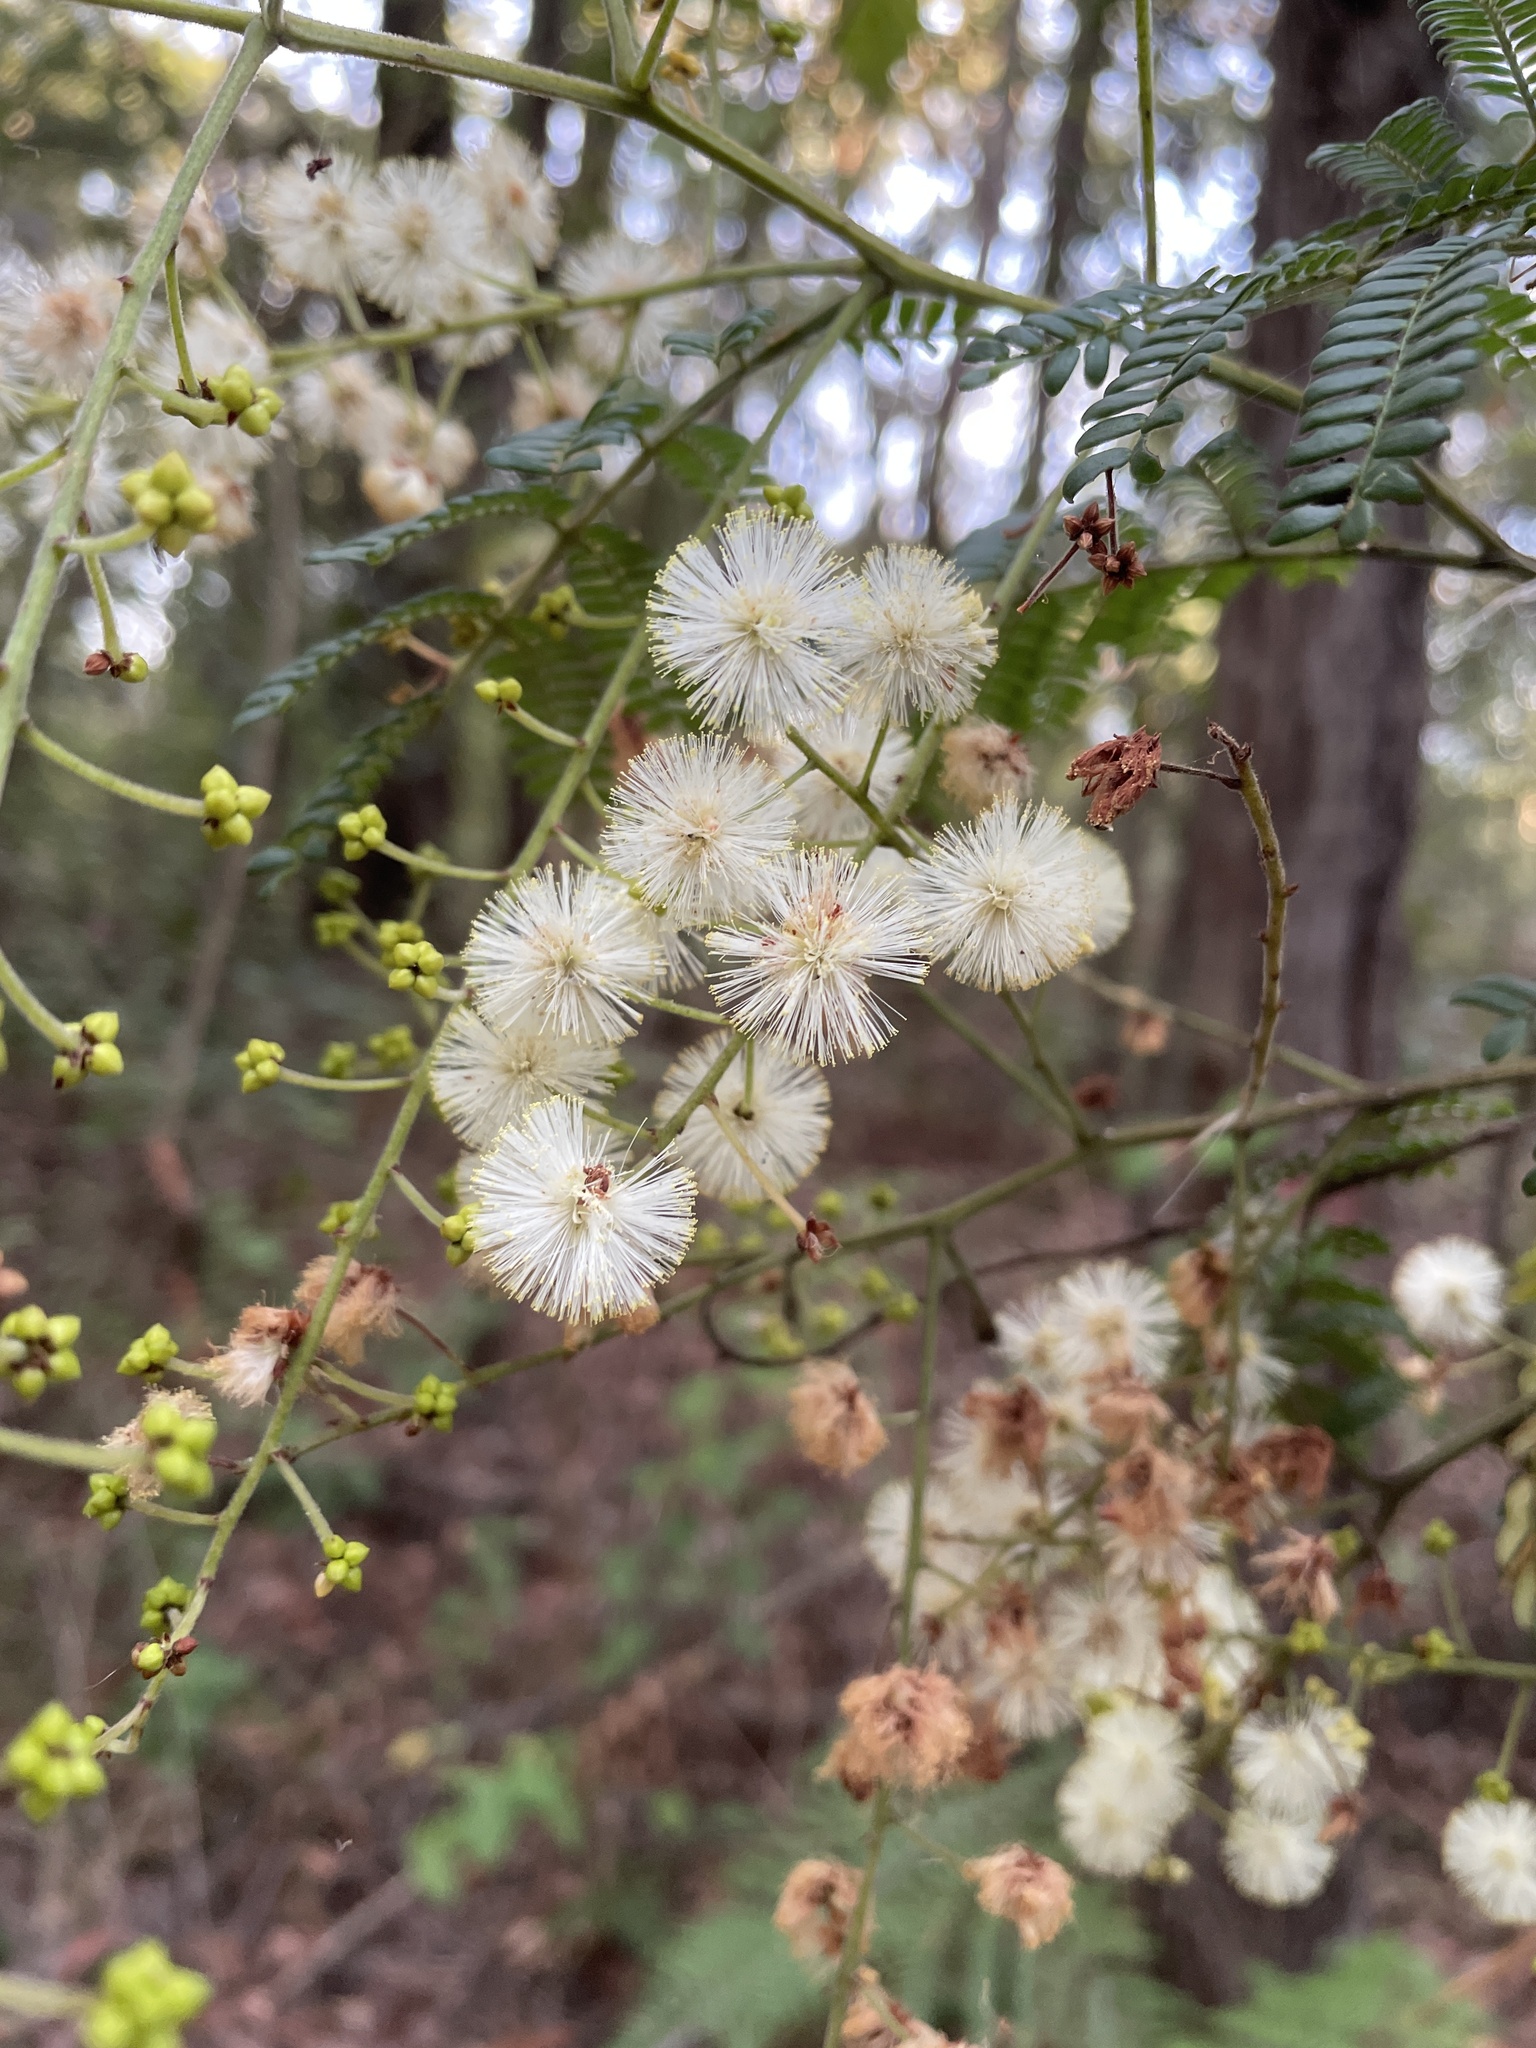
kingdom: Plantae
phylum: Tracheophyta
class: Magnoliopsida
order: Fabales
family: Fabaceae
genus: Acacia
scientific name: Acacia terminalis
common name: Cedar wattle
